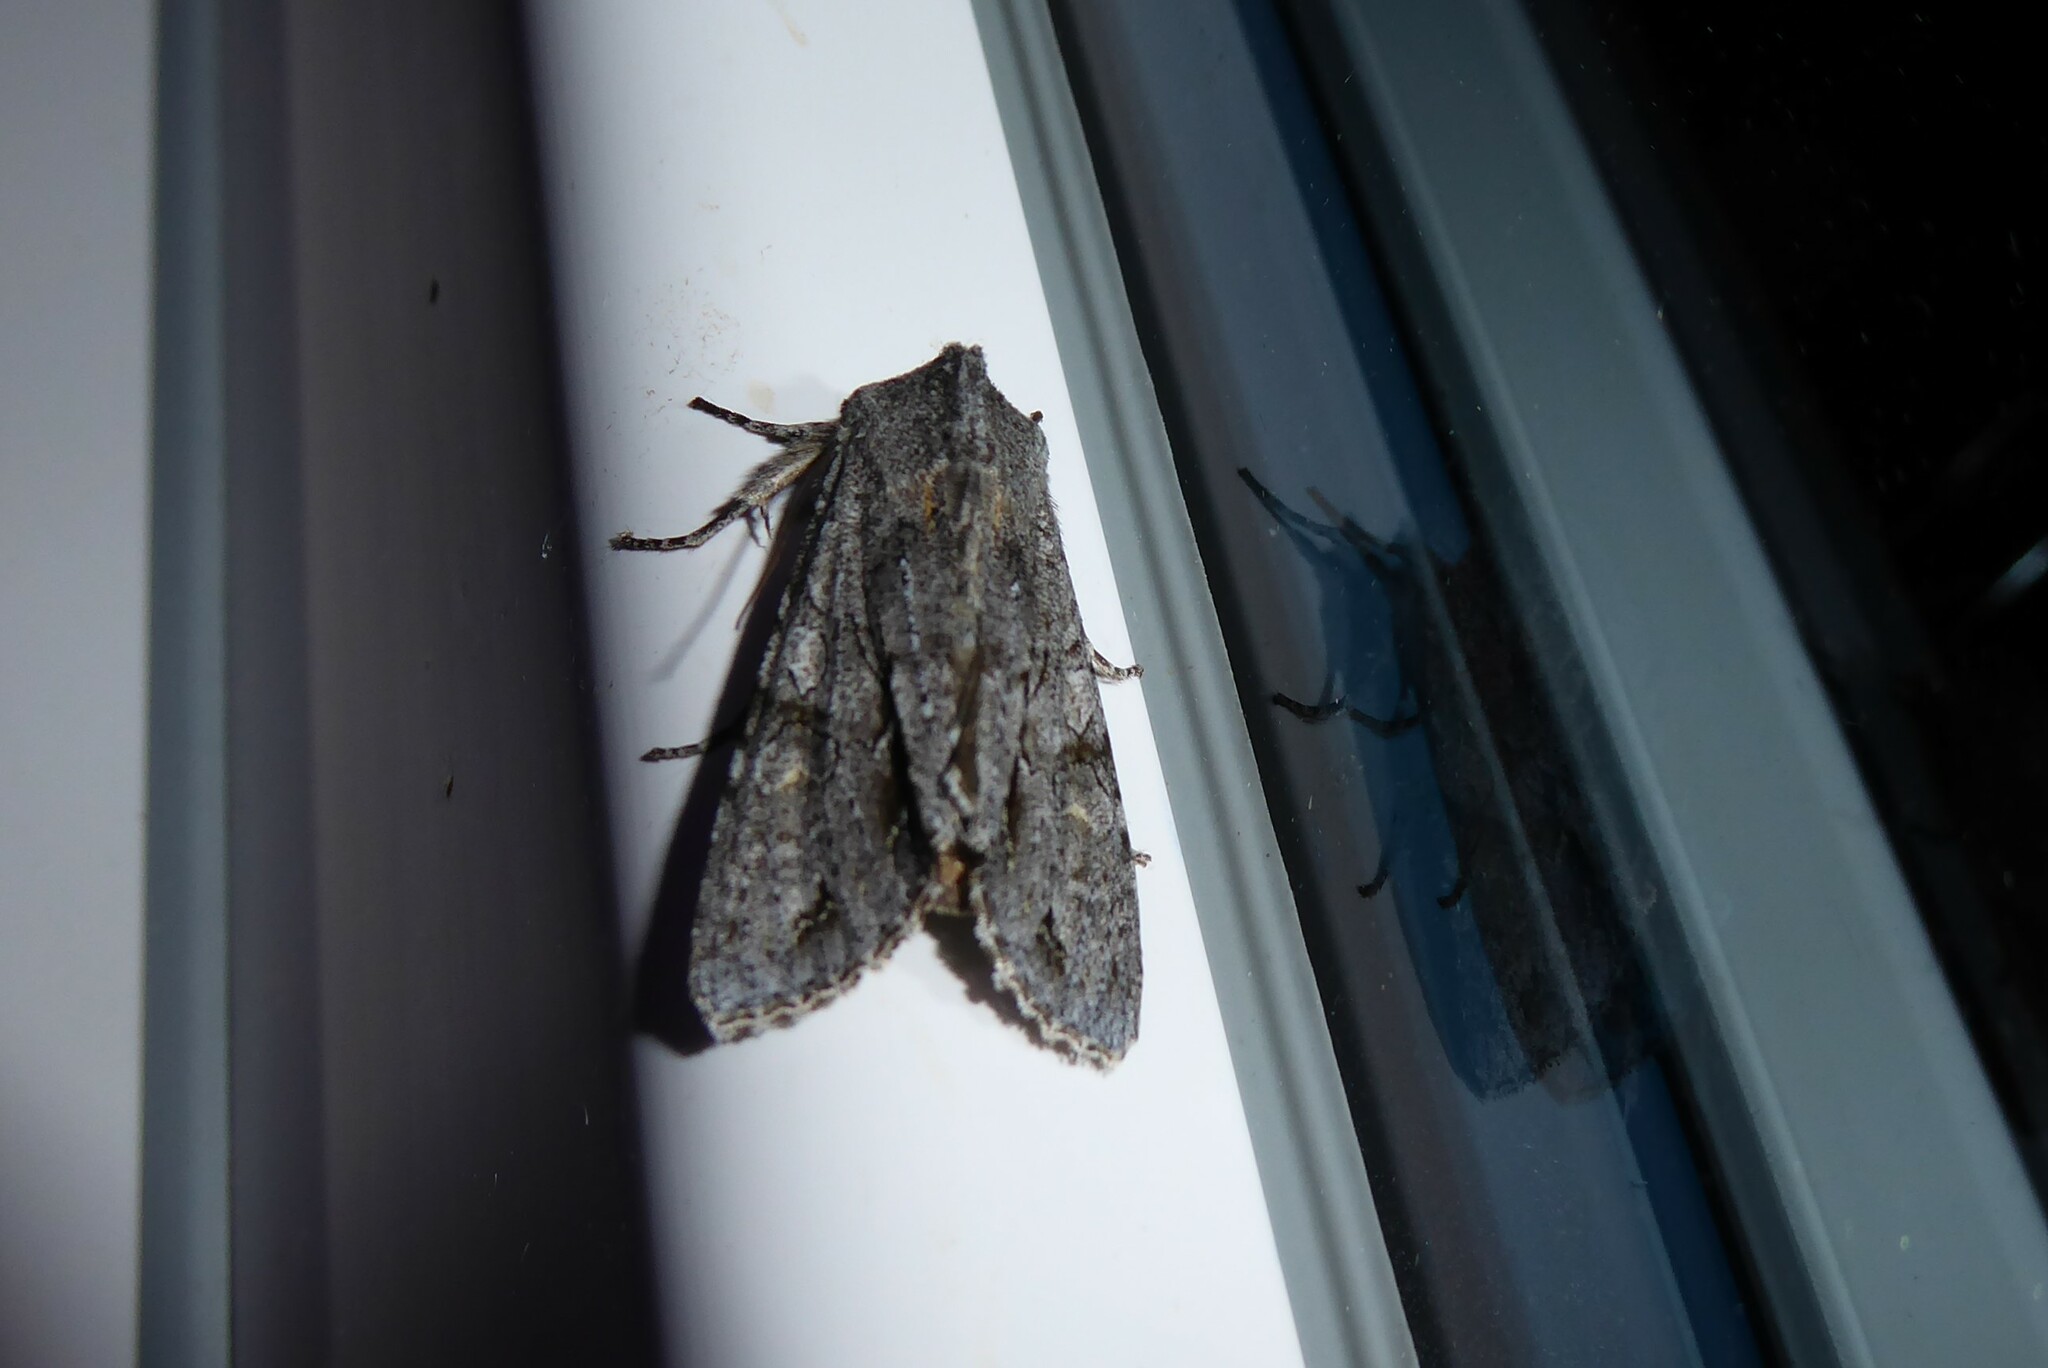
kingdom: Animalia
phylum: Arthropoda
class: Insecta
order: Lepidoptera
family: Noctuidae
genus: Ichneutica
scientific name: Ichneutica
